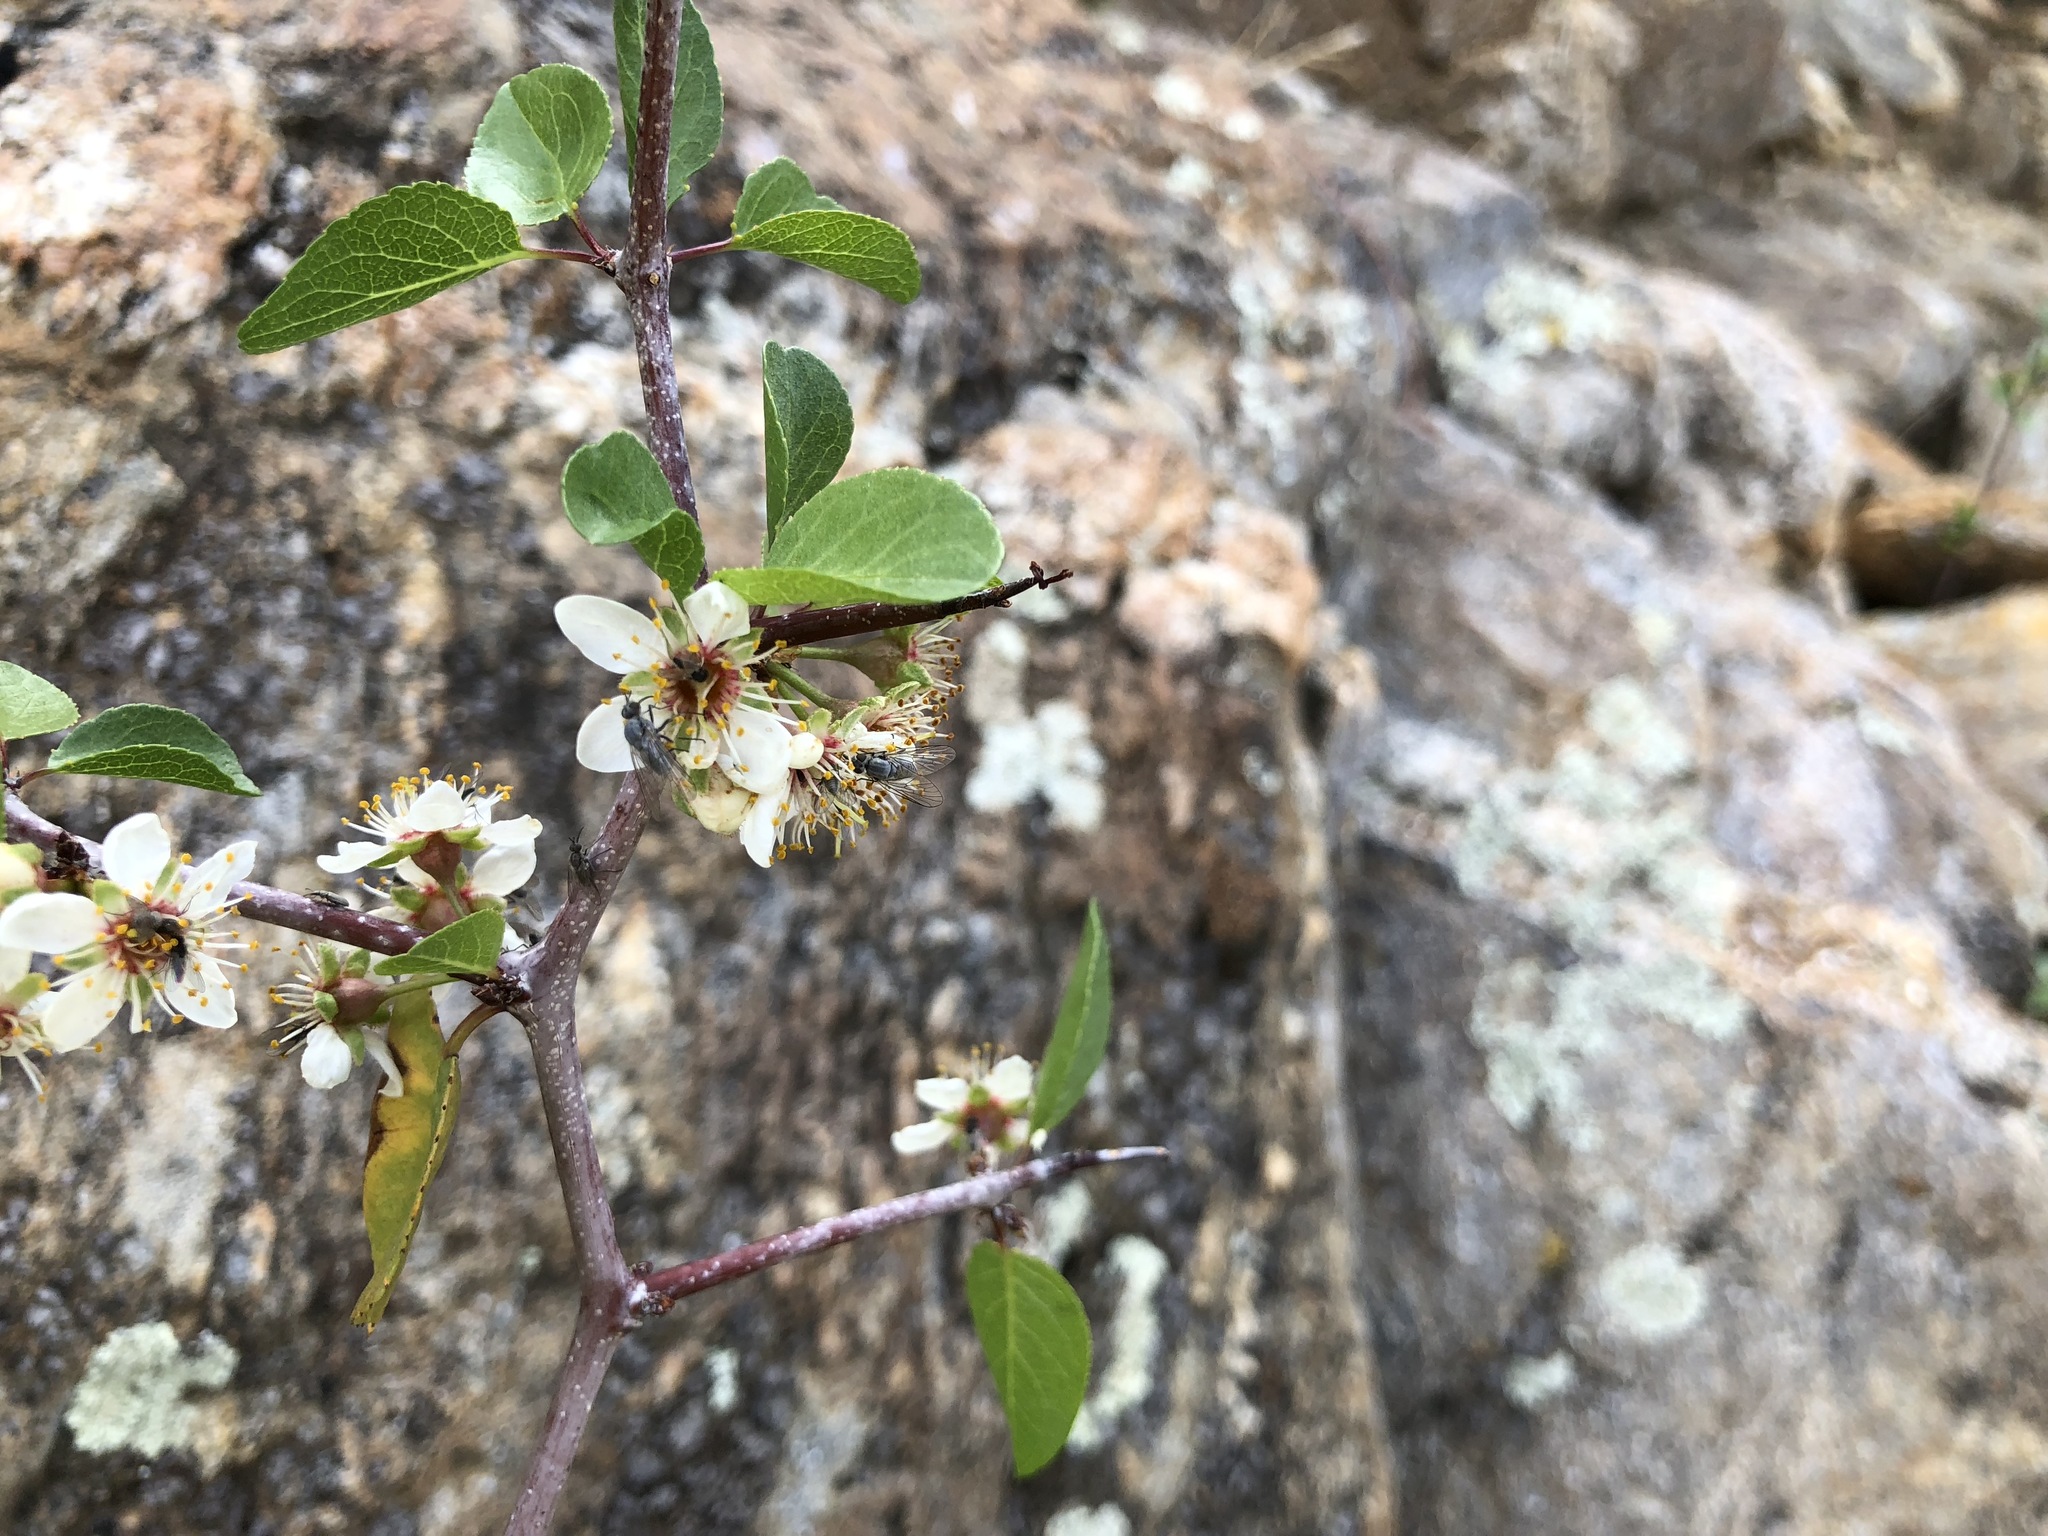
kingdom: Plantae
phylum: Tracheophyta
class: Magnoliopsida
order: Rosales
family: Rosaceae
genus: Prunus
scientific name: Prunus fremontii
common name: Desert apricot
